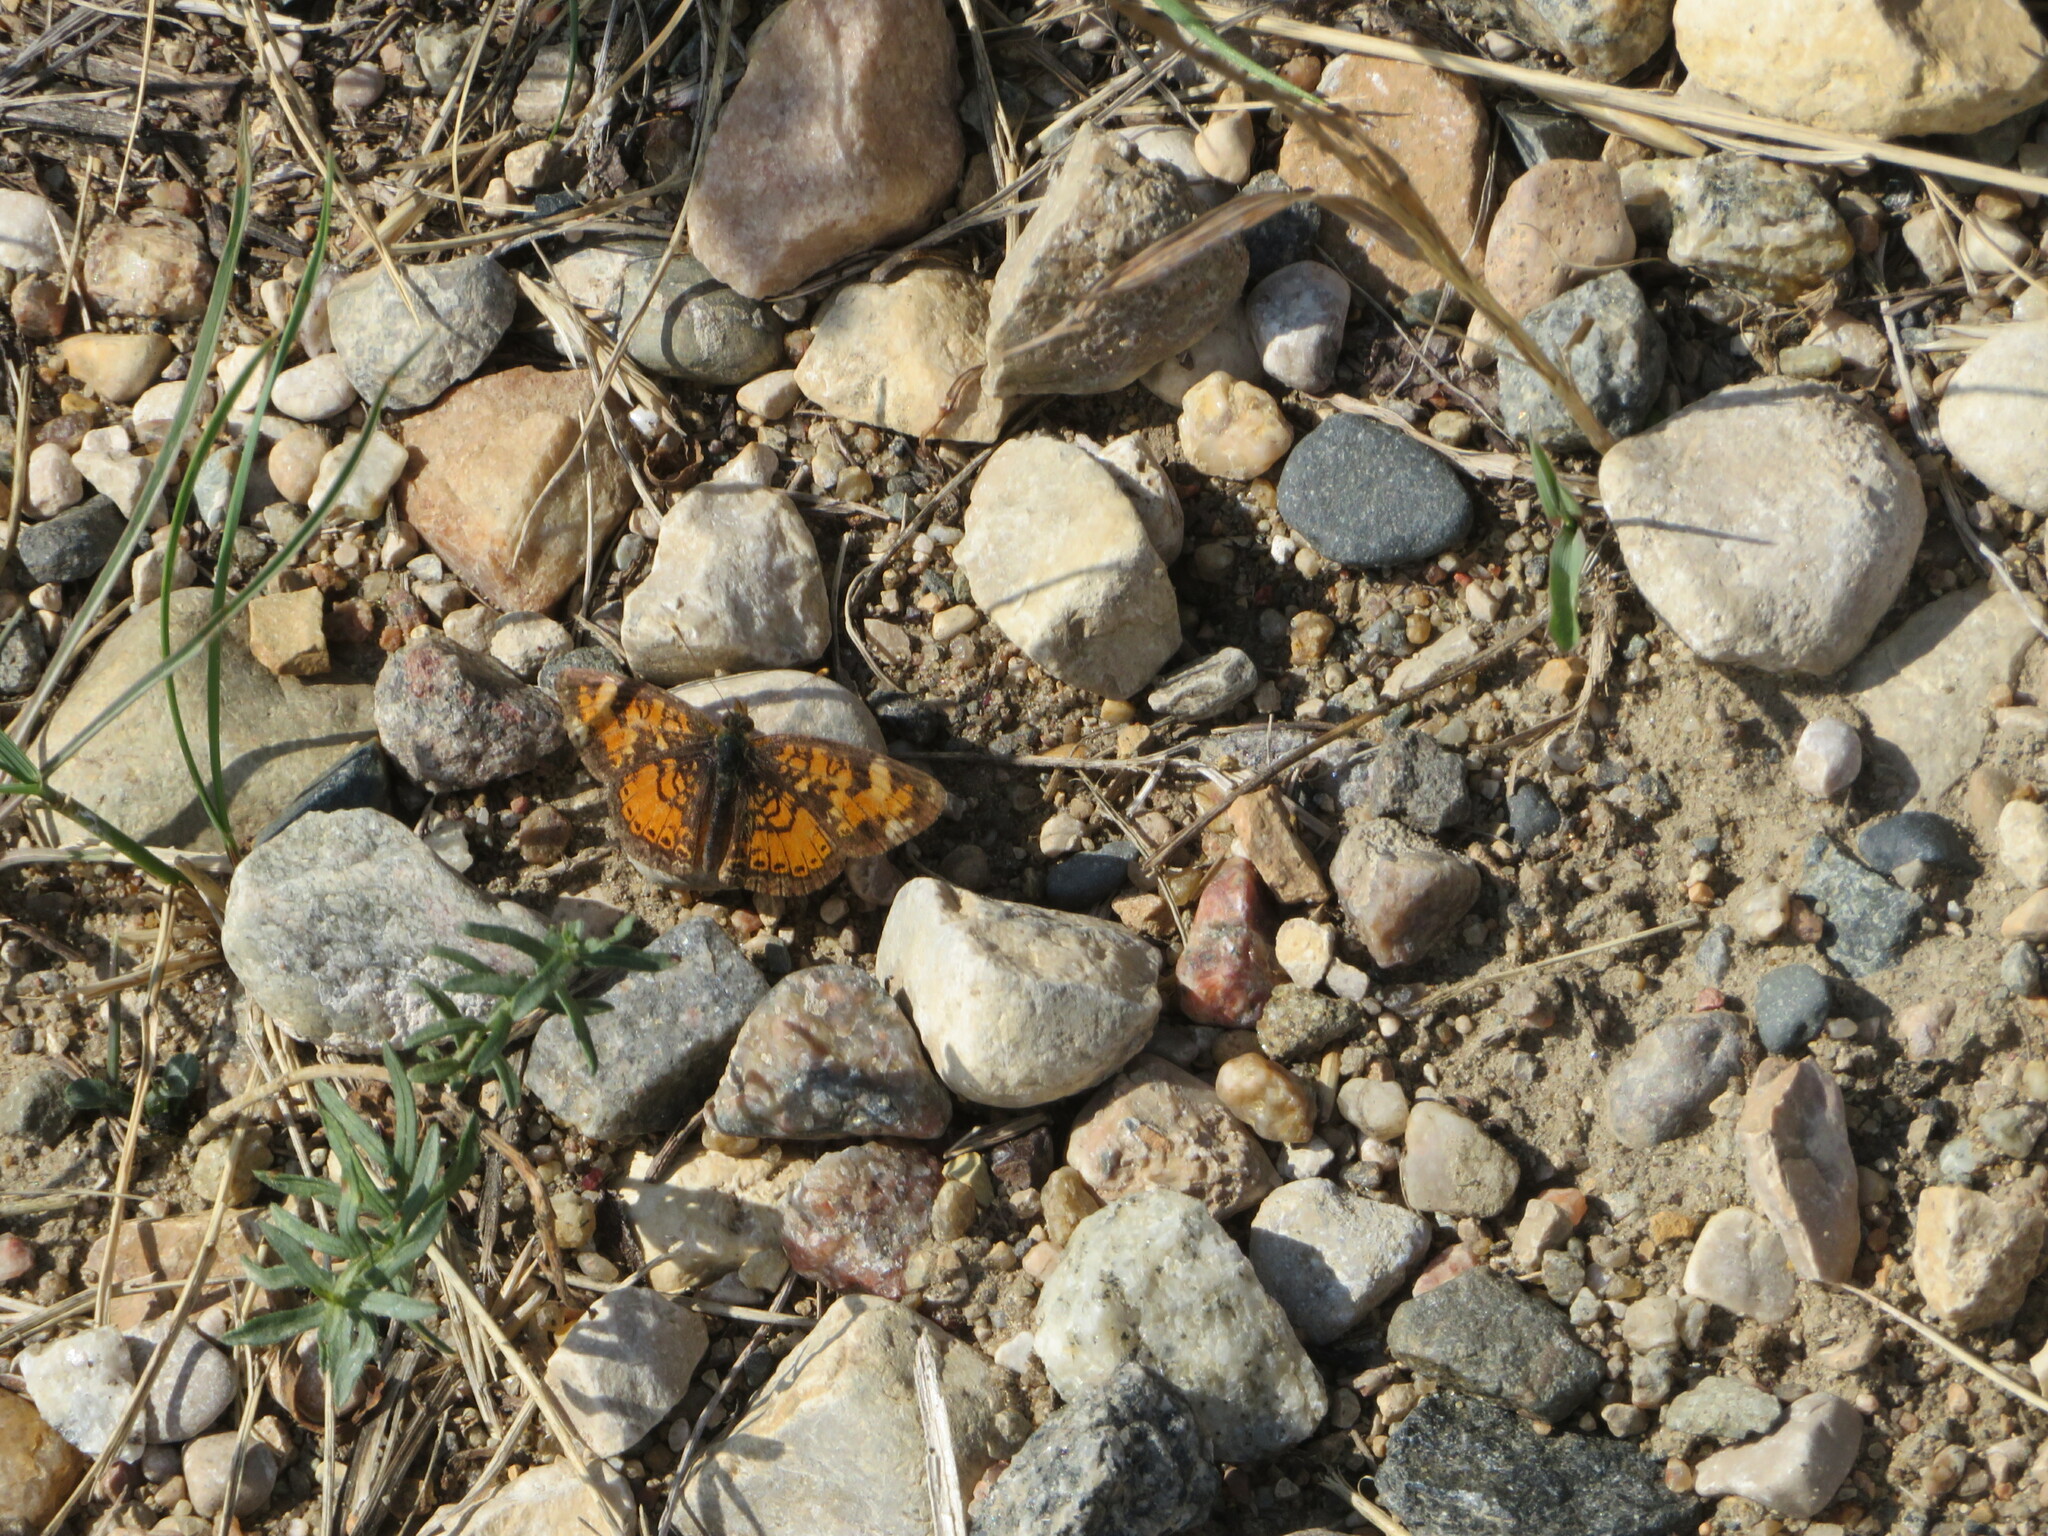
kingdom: Animalia
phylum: Arthropoda
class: Insecta
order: Lepidoptera
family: Nymphalidae
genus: Phyciodes
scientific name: Phyciodes tharos
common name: Pearl crescent
